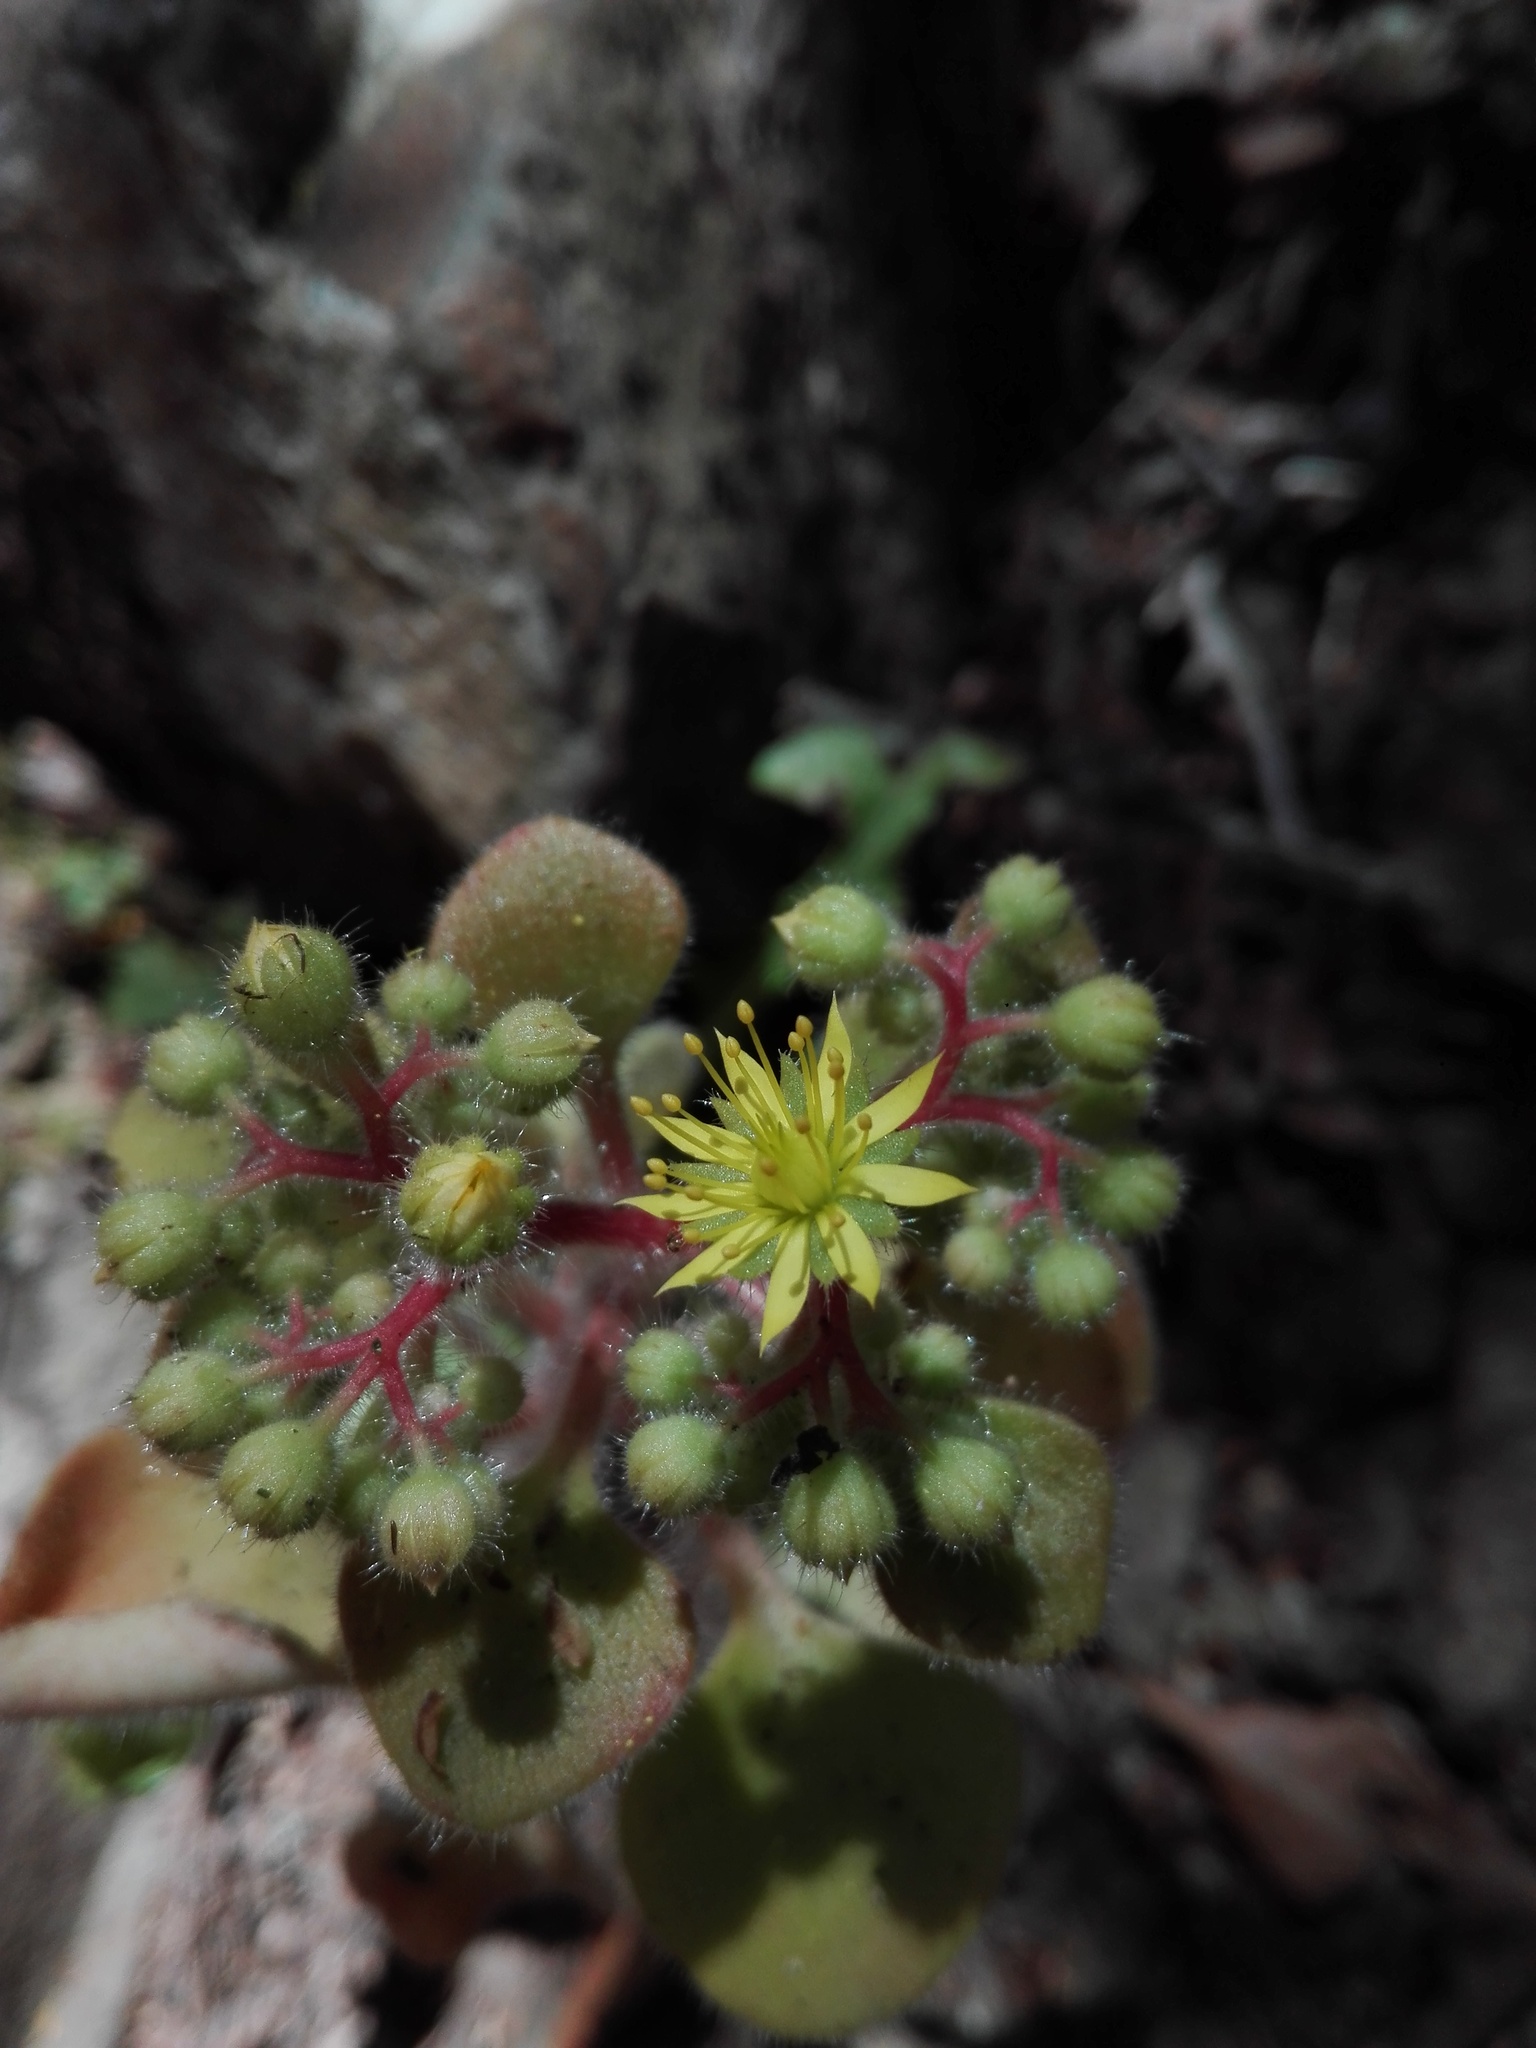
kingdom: Plantae
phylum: Tracheophyta
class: Magnoliopsida
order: Saxifragales
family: Crassulaceae
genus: Aichryson
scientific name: Aichryson laxum
